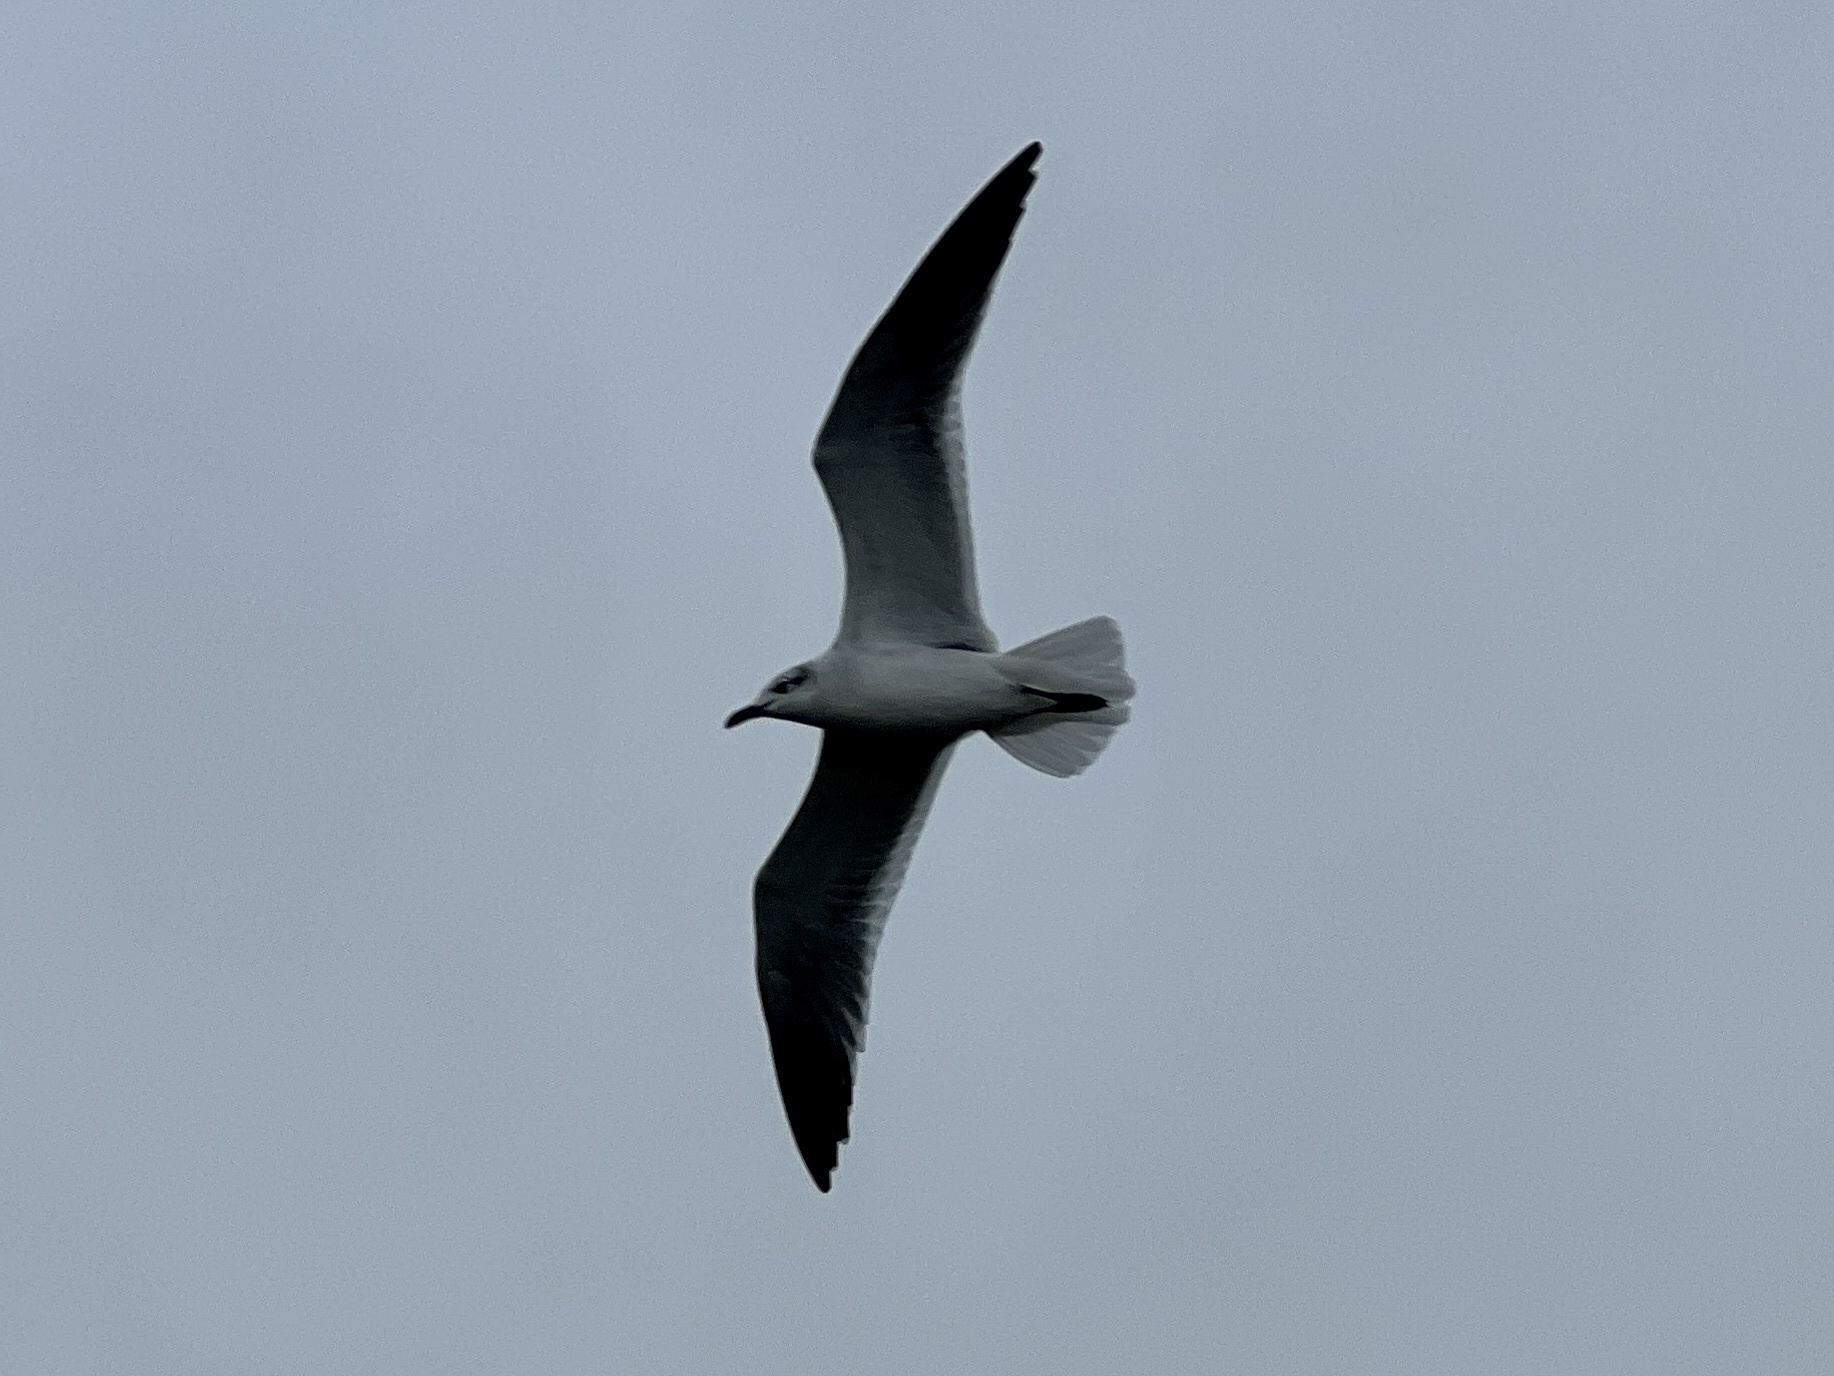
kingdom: Animalia
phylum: Chordata
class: Aves
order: Charadriiformes
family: Laridae
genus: Leucophaeus
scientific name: Leucophaeus atricilla
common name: Laughing gull
